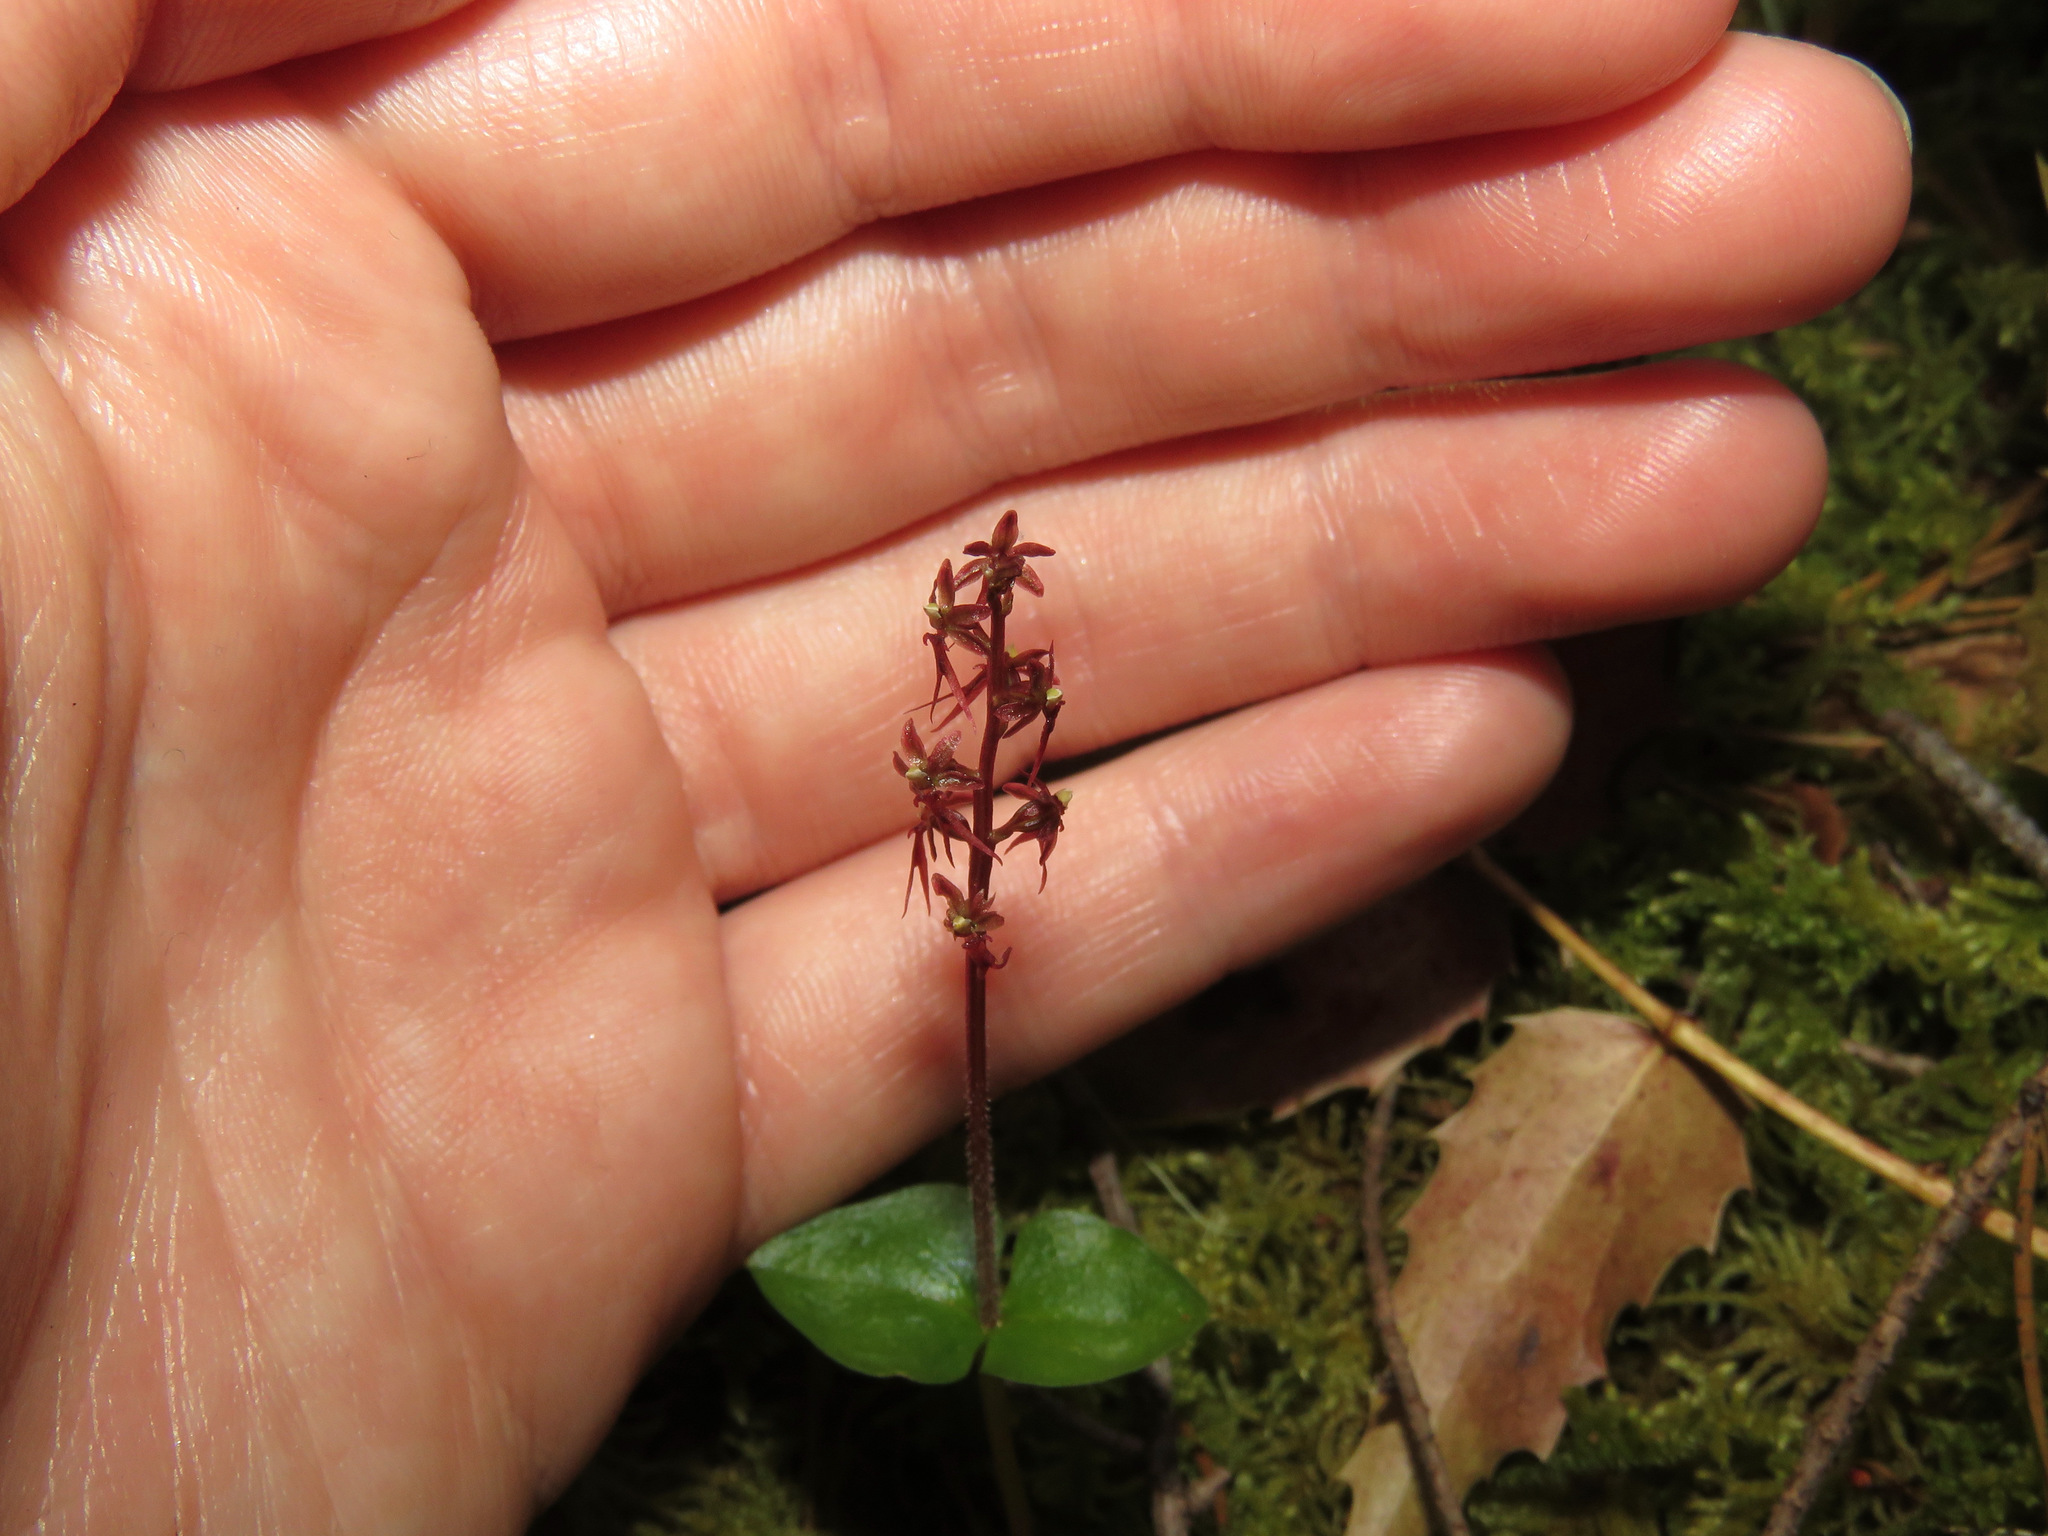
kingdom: Plantae
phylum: Tracheophyta
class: Liliopsida
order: Asparagales
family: Orchidaceae
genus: Neottia
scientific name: Neottia cordata
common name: Lesser twayblade
